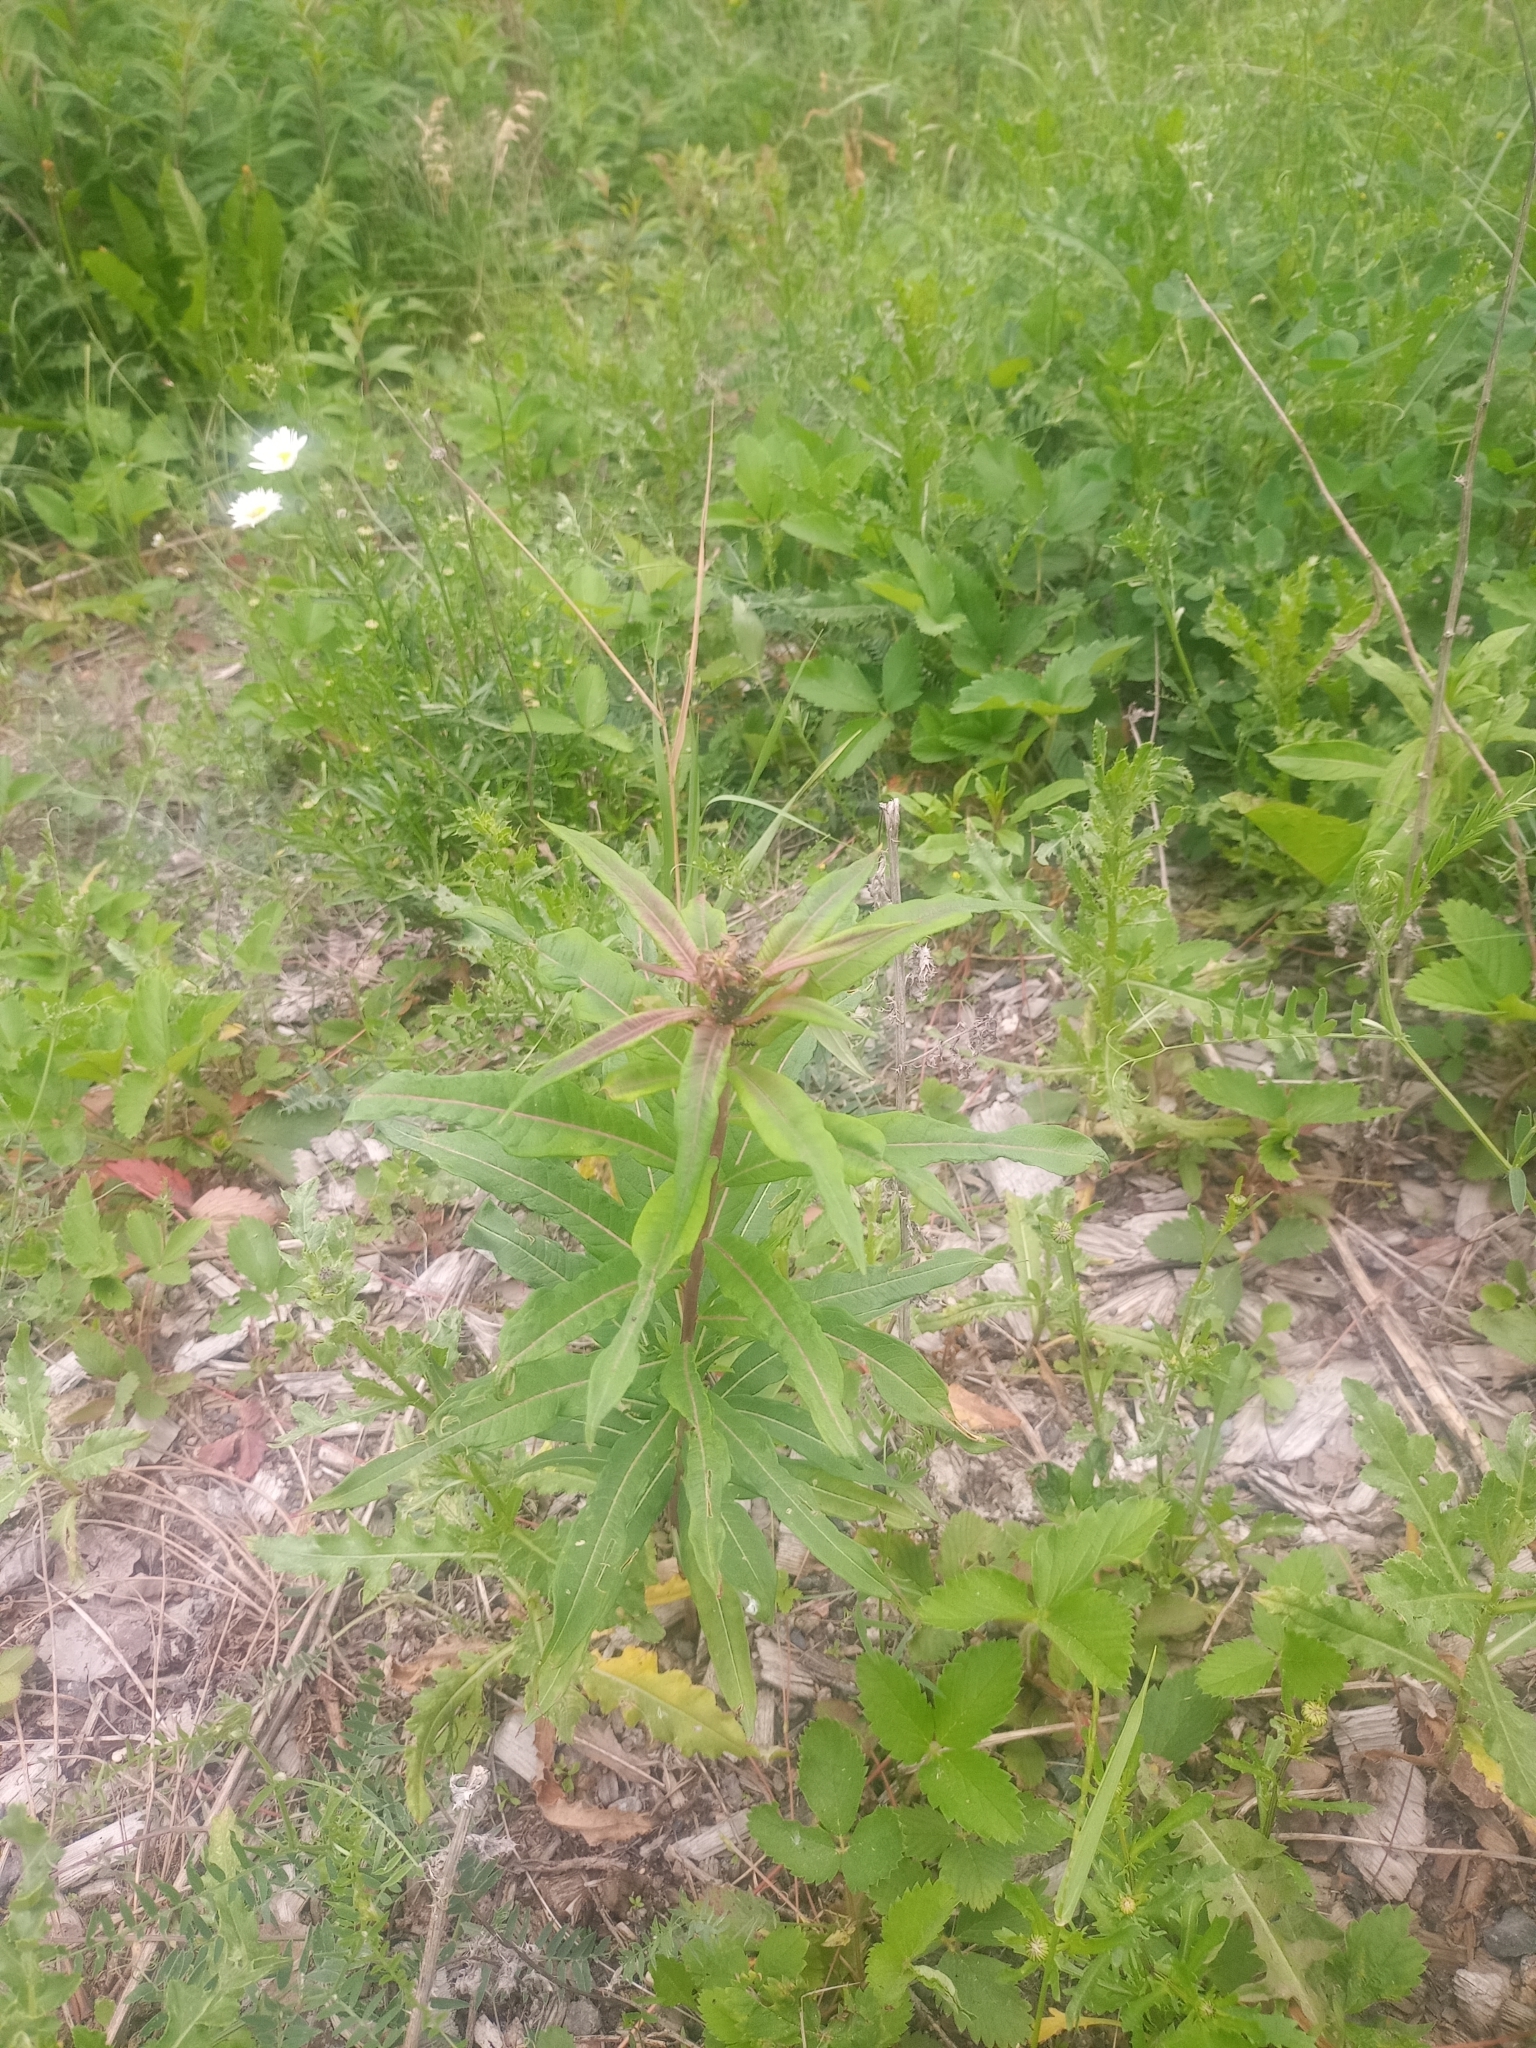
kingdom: Plantae
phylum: Tracheophyta
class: Magnoliopsida
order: Myrtales
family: Onagraceae
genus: Chamaenerion
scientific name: Chamaenerion angustifolium
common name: Fireweed
